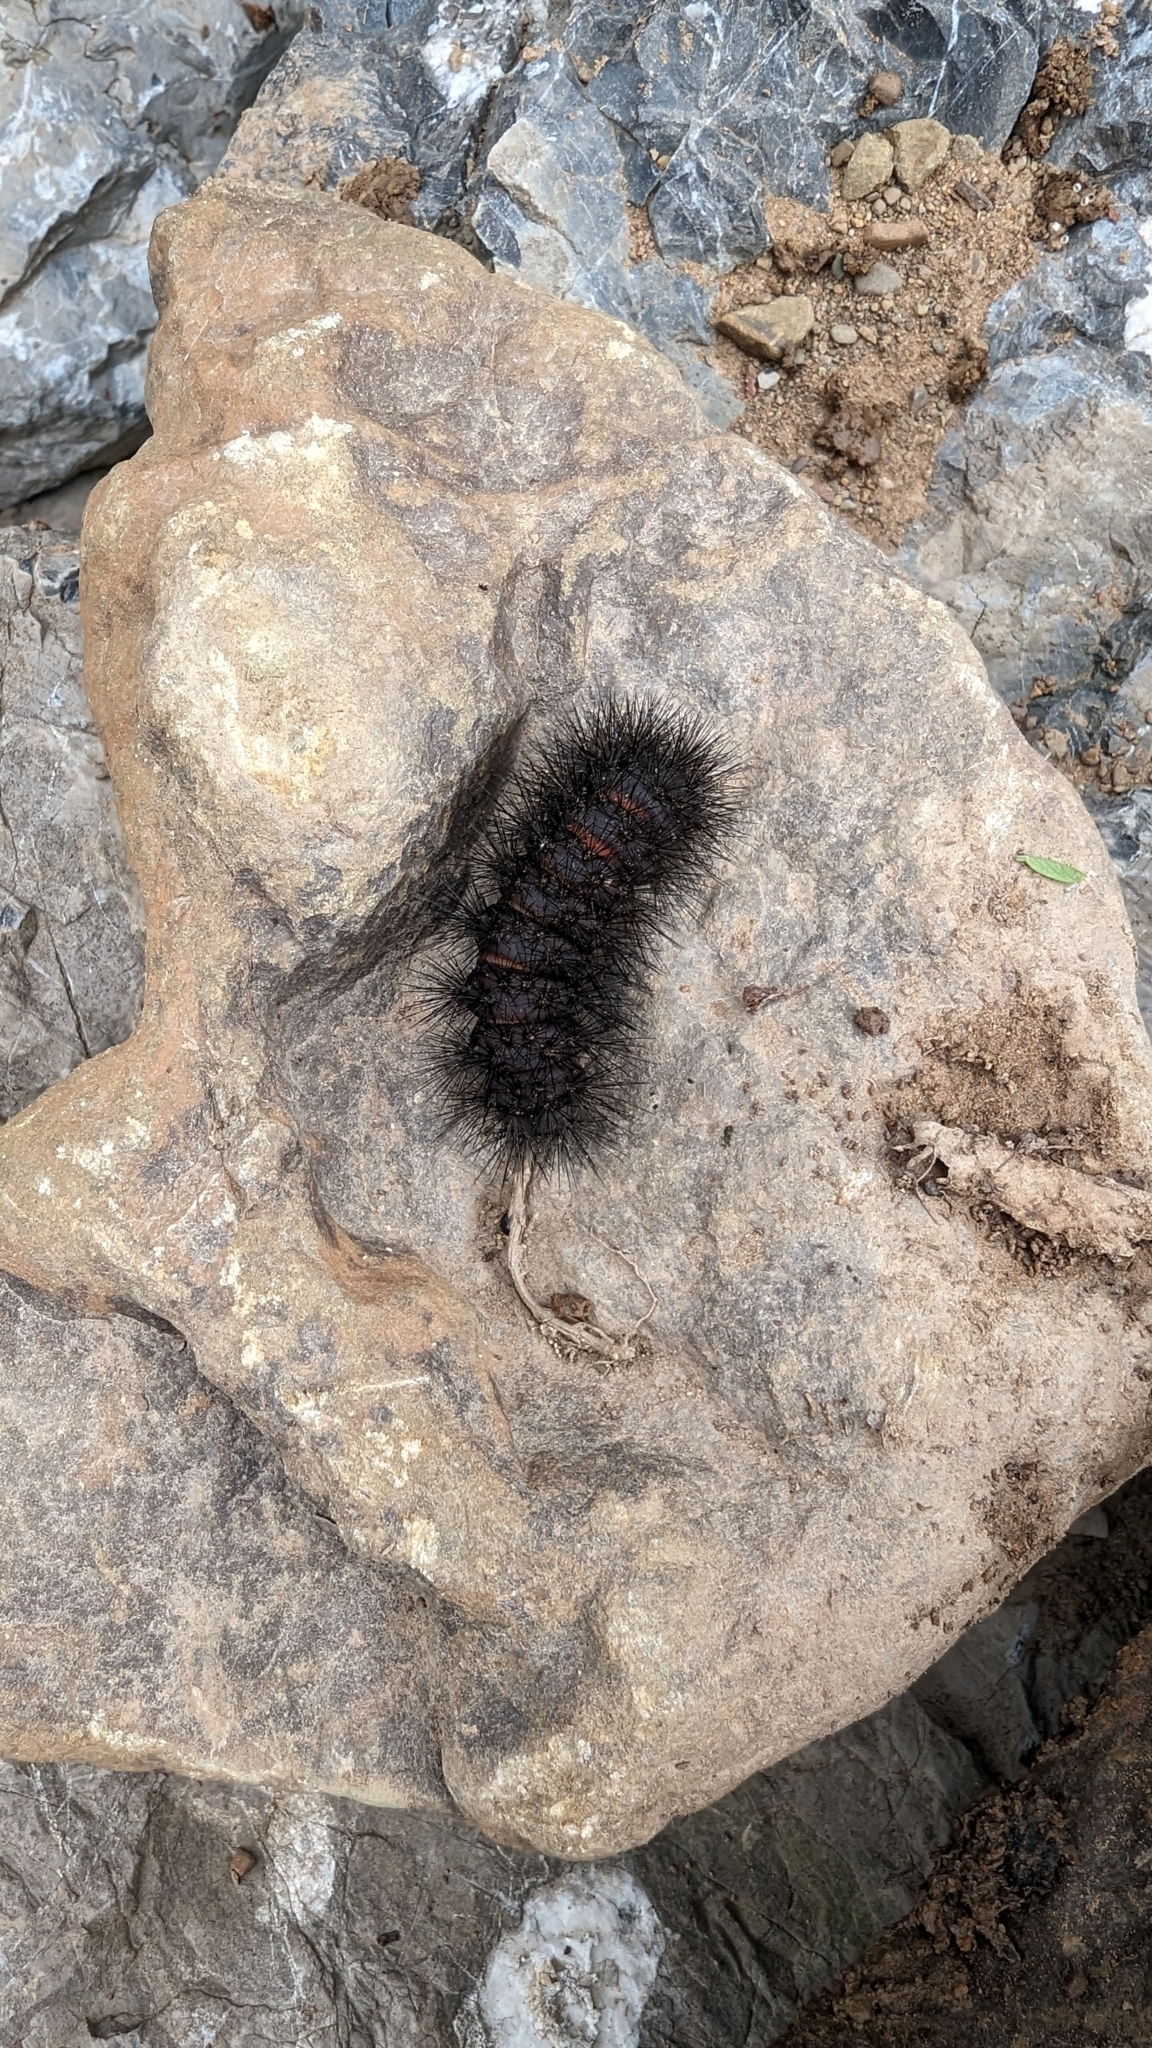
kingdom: Animalia
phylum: Arthropoda
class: Insecta
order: Lepidoptera
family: Erebidae
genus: Hypercompe
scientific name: Hypercompe scribonia
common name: Giant leopard moth
